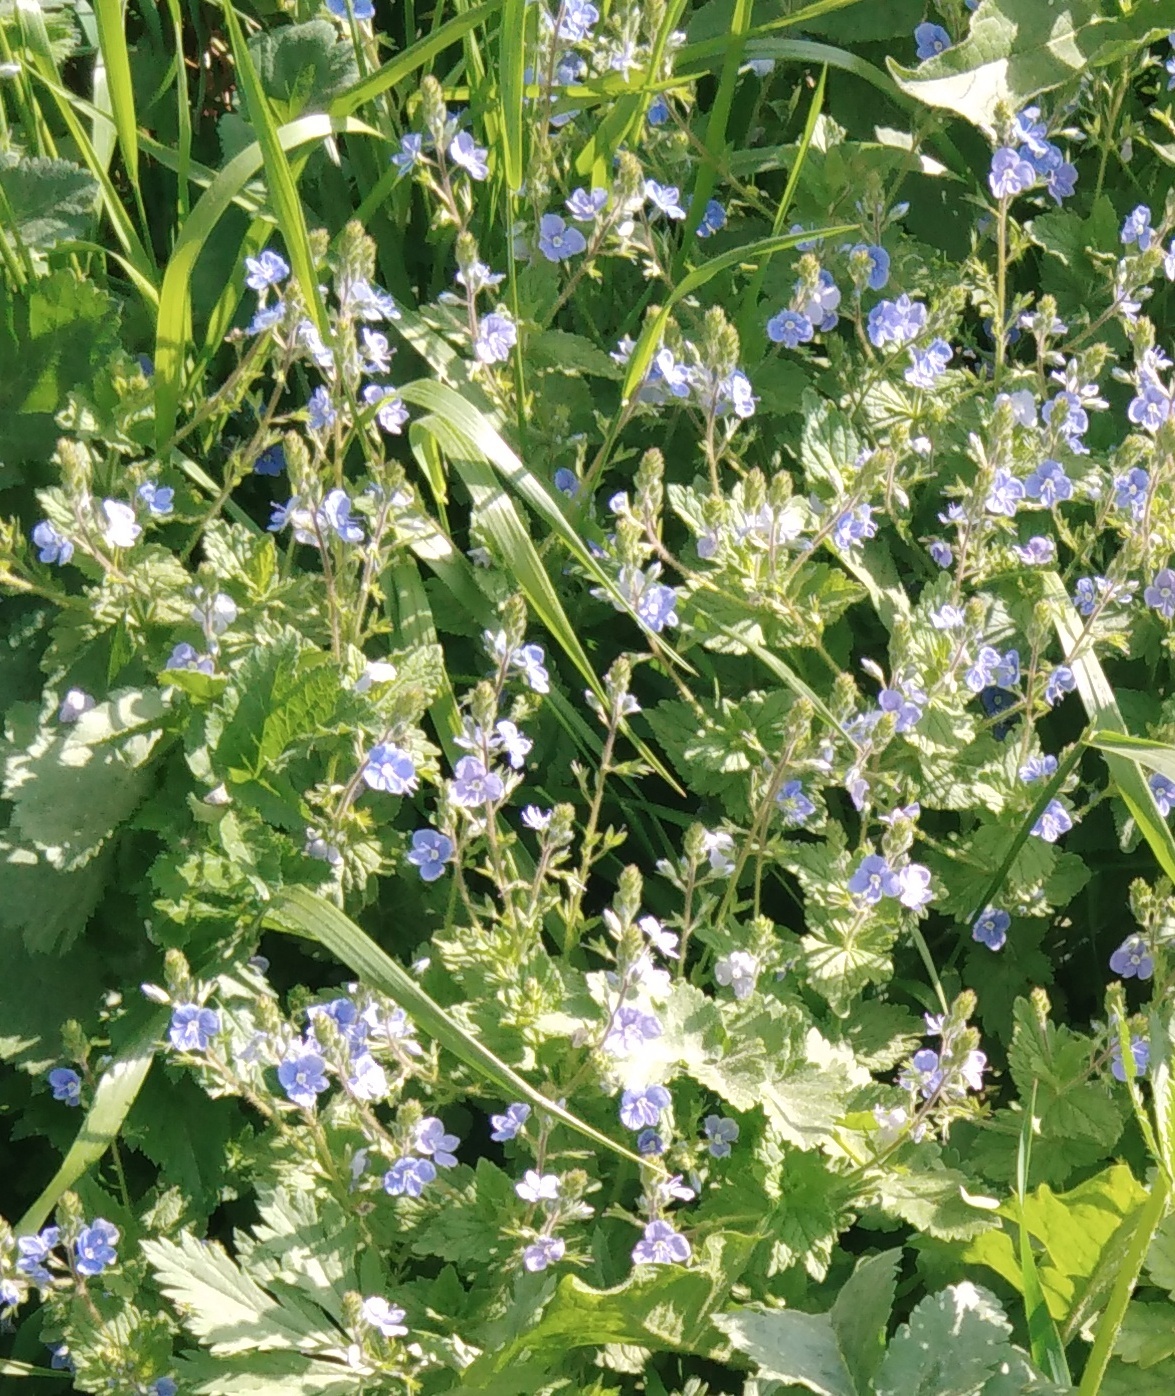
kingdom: Plantae
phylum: Tracheophyta
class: Magnoliopsida
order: Lamiales
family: Plantaginaceae
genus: Veronica
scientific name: Veronica chamaedrys
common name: Germander speedwell
